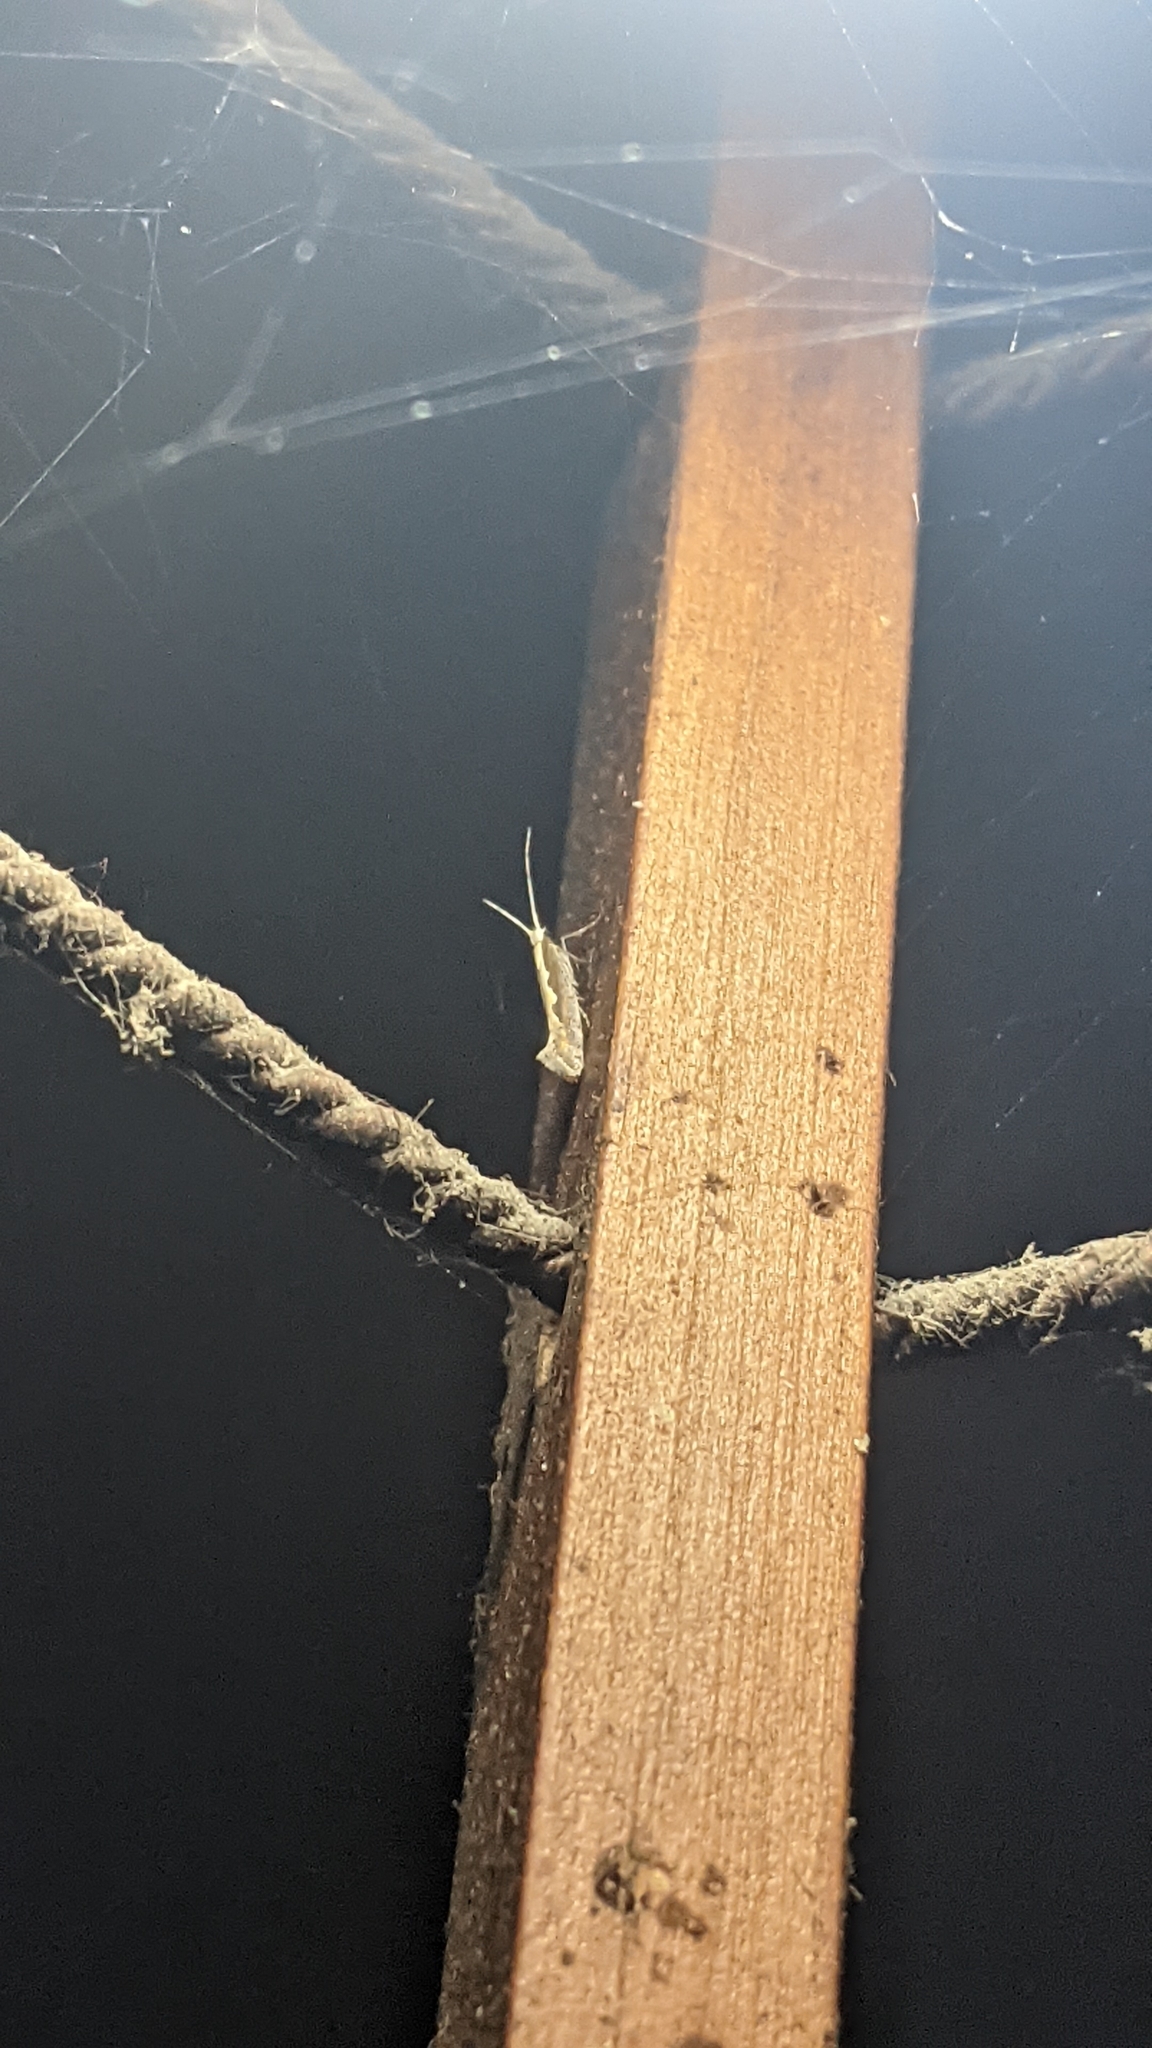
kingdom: Animalia
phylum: Arthropoda
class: Insecta
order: Lepidoptera
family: Plutellidae
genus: Plutella
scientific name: Plutella xylostella
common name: Diamond-back moth
